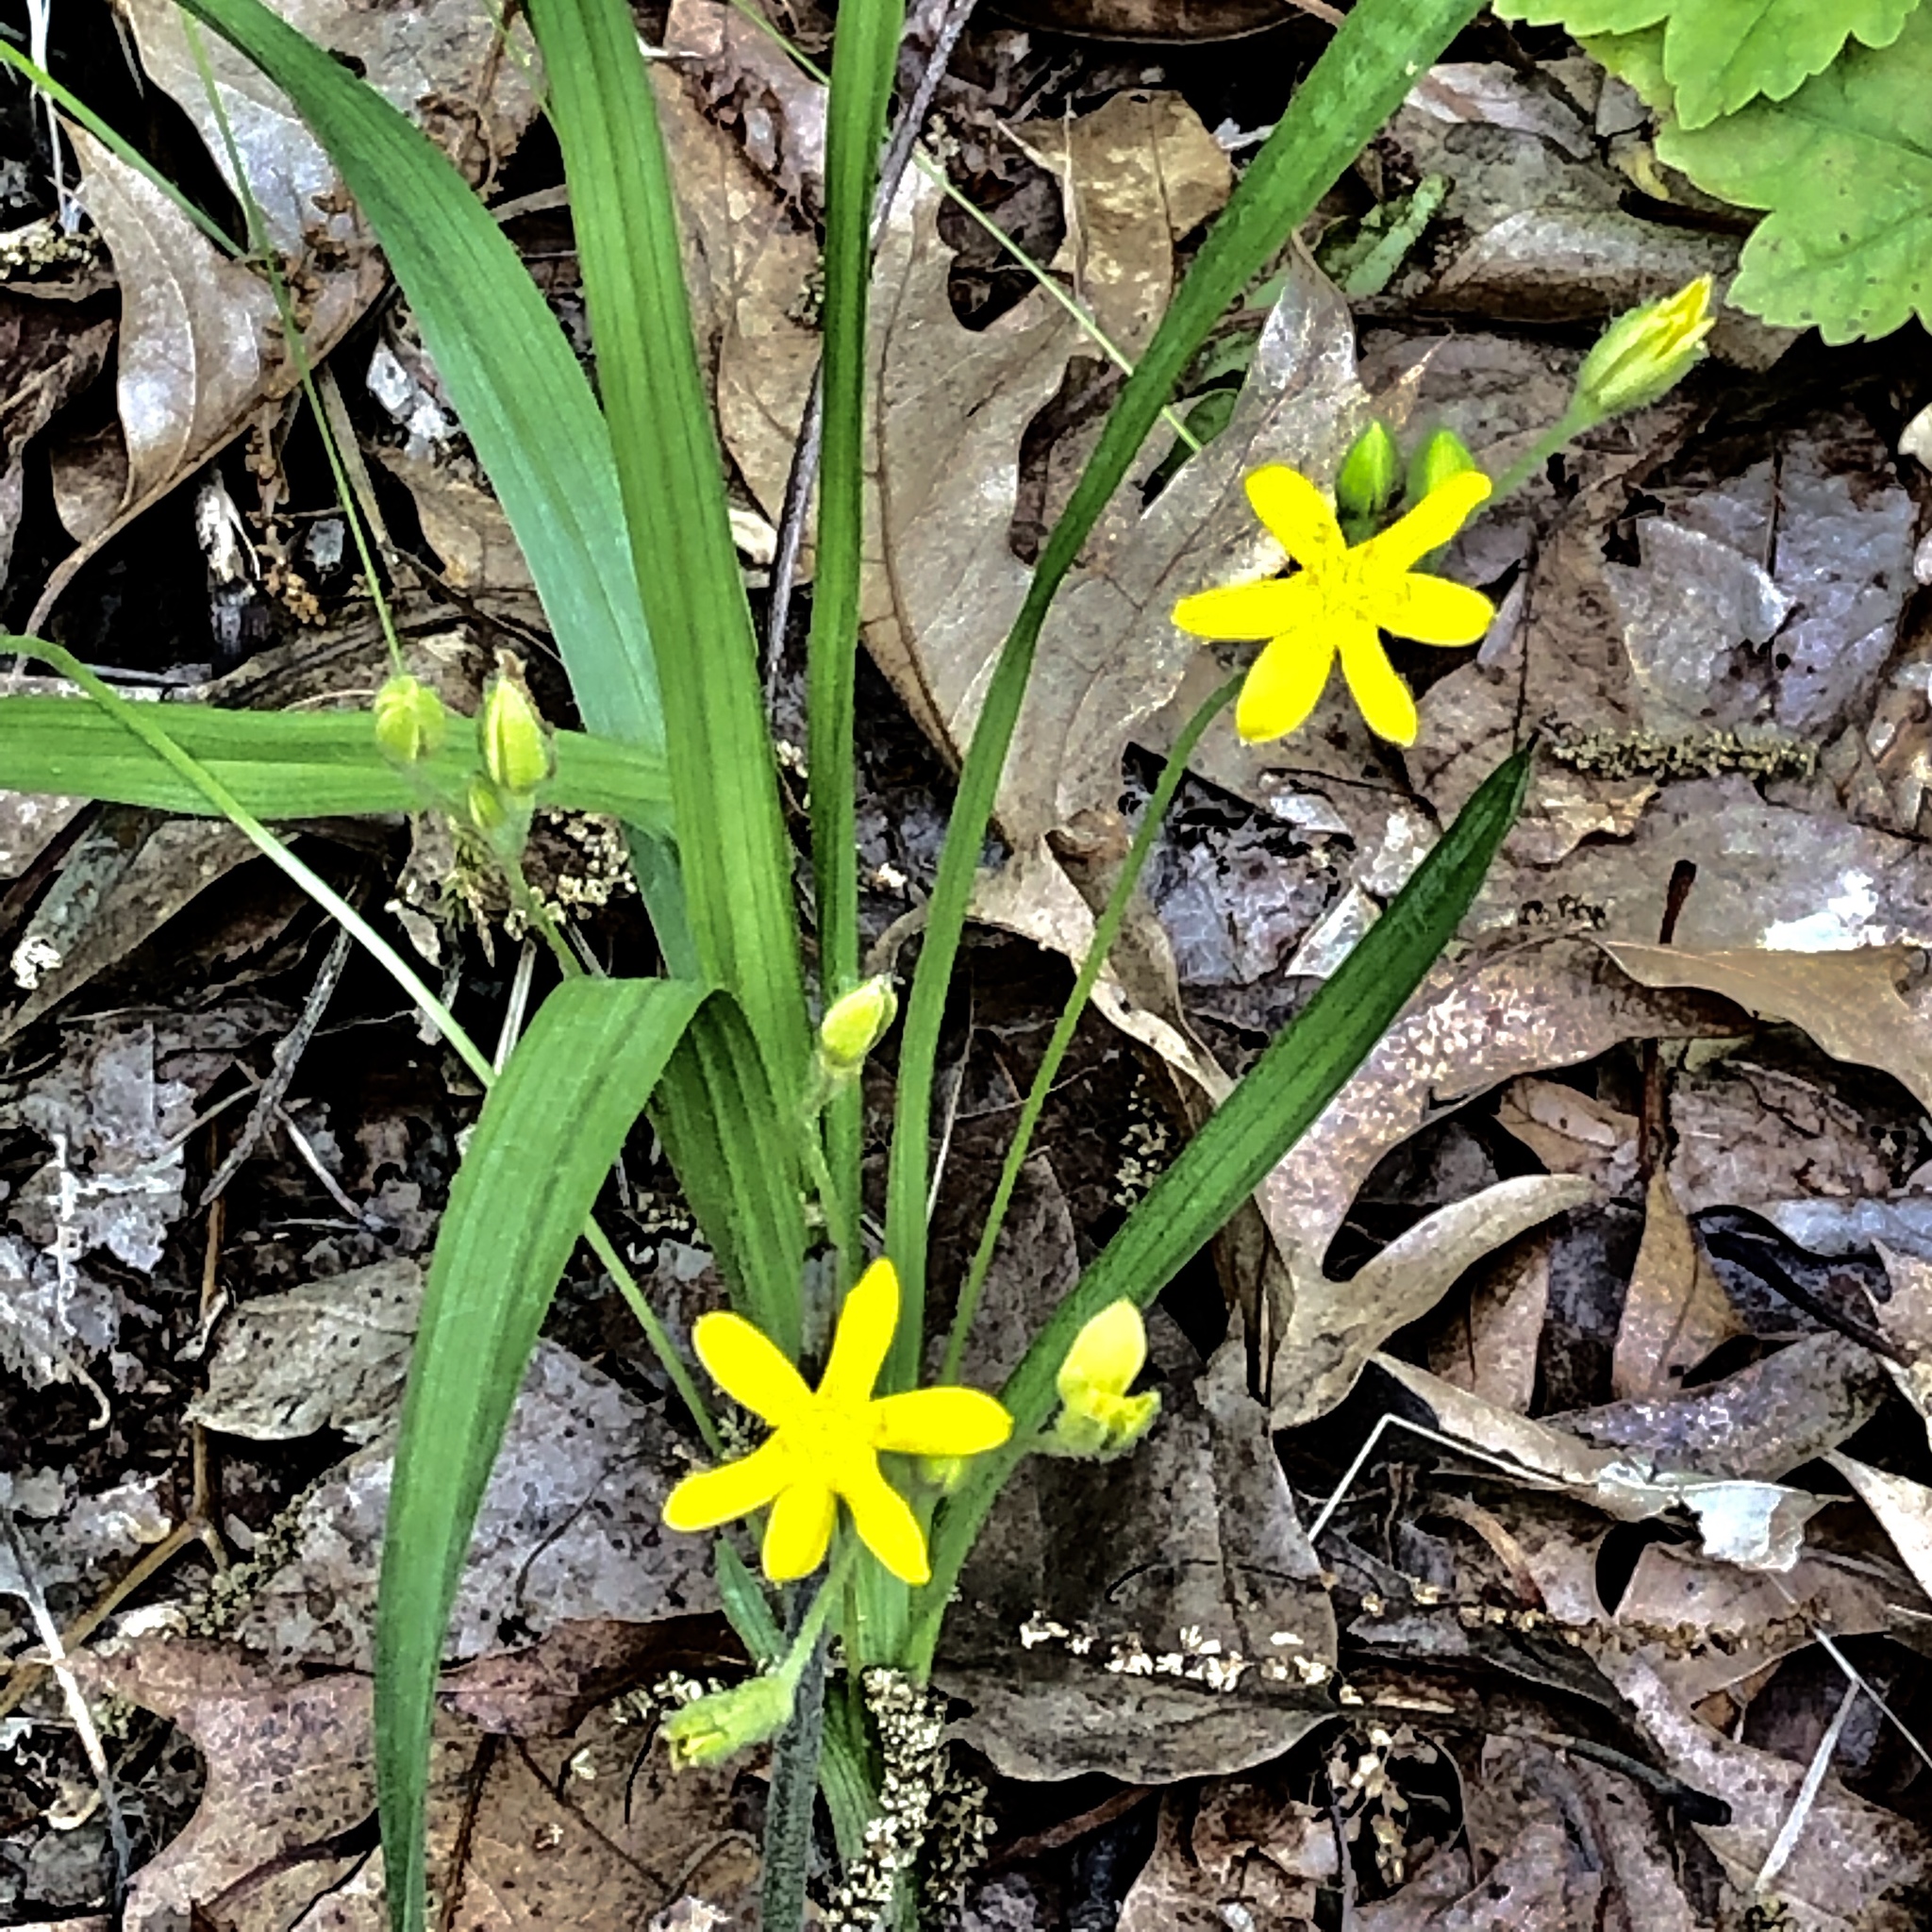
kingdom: Plantae
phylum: Tracheophyta
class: Liliopsida
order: Asparagales
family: Hypoxidaceae
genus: Hypoxis
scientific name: Hypoxis hirsuta
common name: Common goldstar
